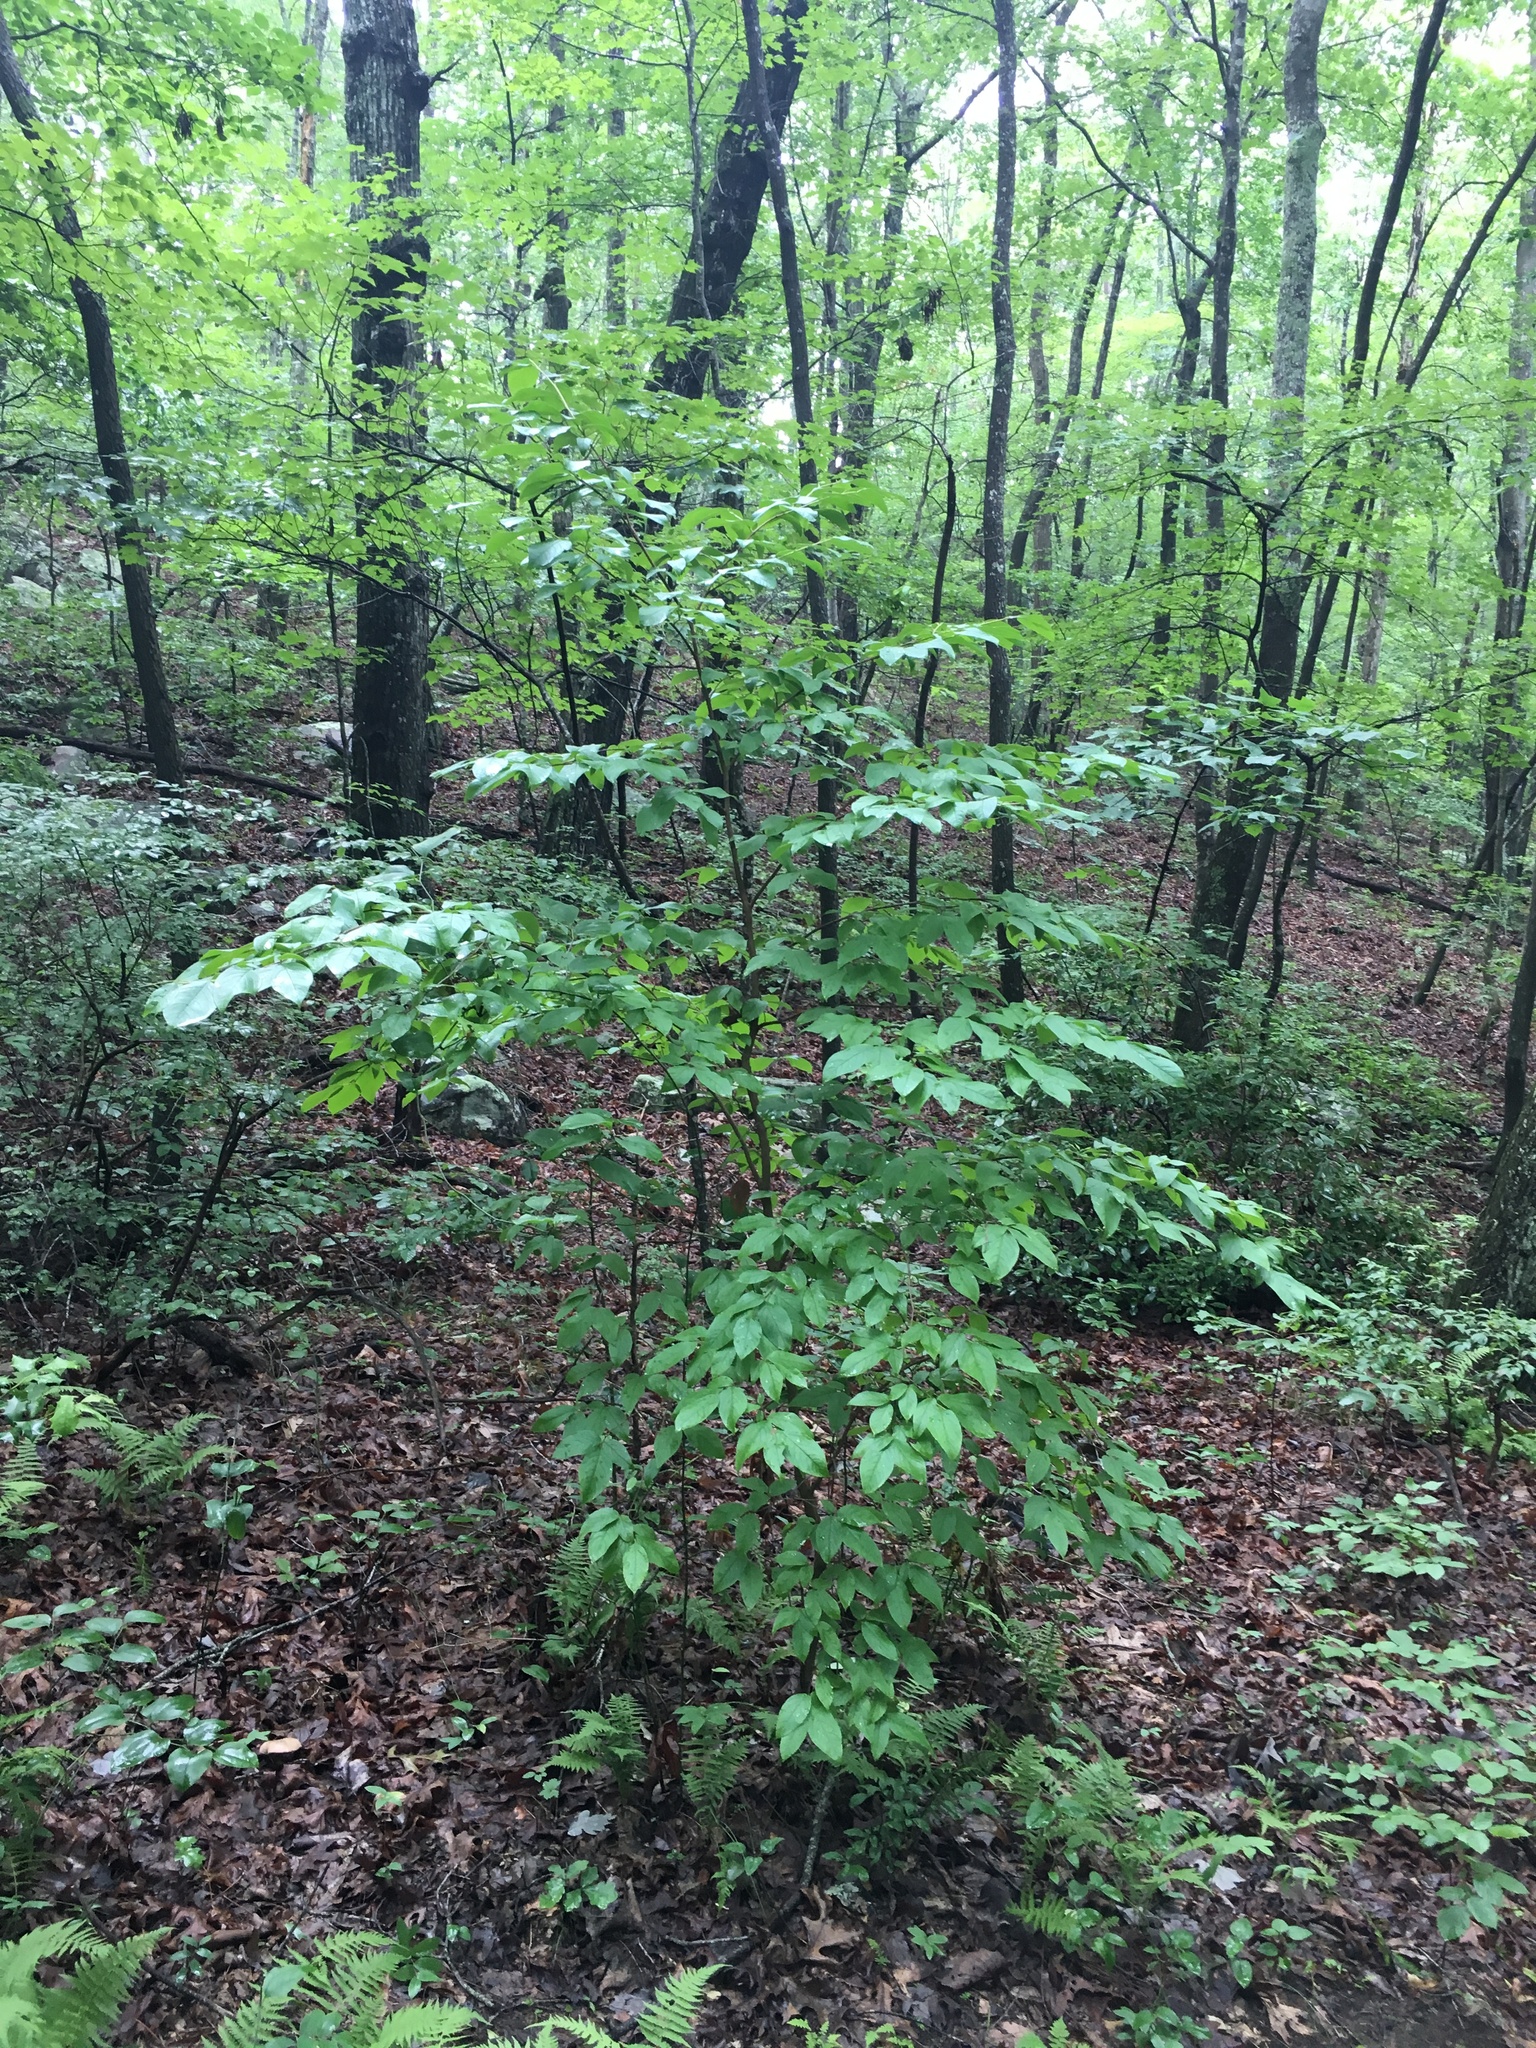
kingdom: Plantae
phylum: Tracheophyta
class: Magnoliopsida
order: Ericales
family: Theaceae
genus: Stewartia
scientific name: Stewartia ovata
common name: Mountain camellia
